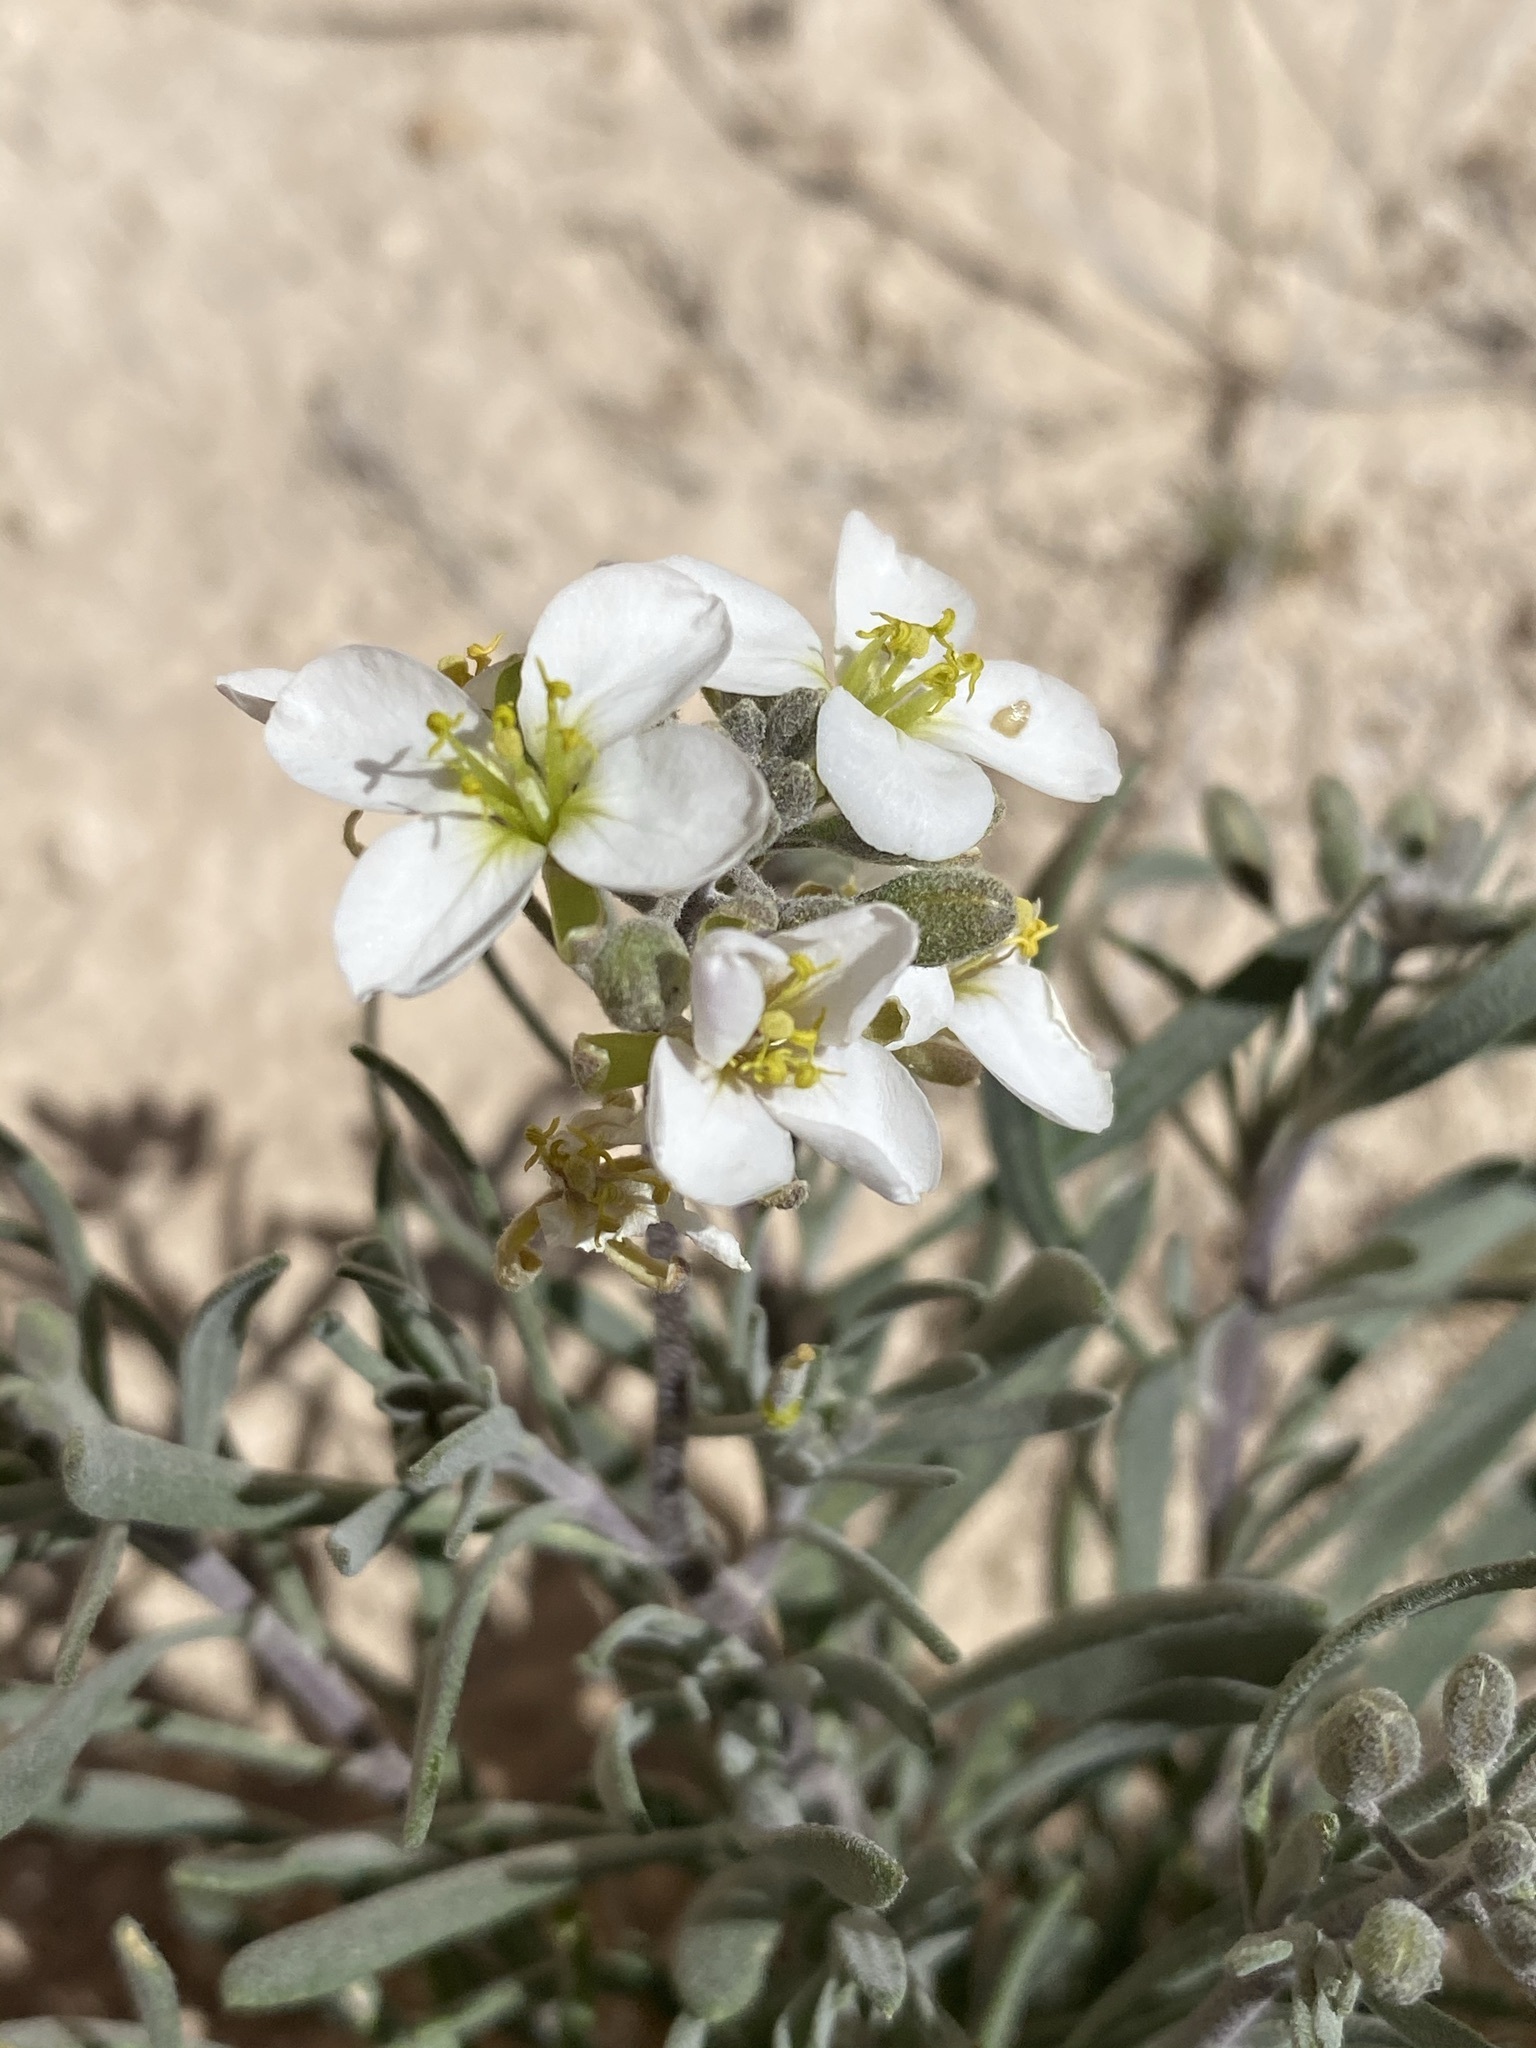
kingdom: Plantae
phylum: Tracheophyta
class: Magnoliopsida
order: Brassicales
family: Brassicaceae
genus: Nerisyrenia
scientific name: Nerisyrenia linearifolia
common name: White sands fan mustard
